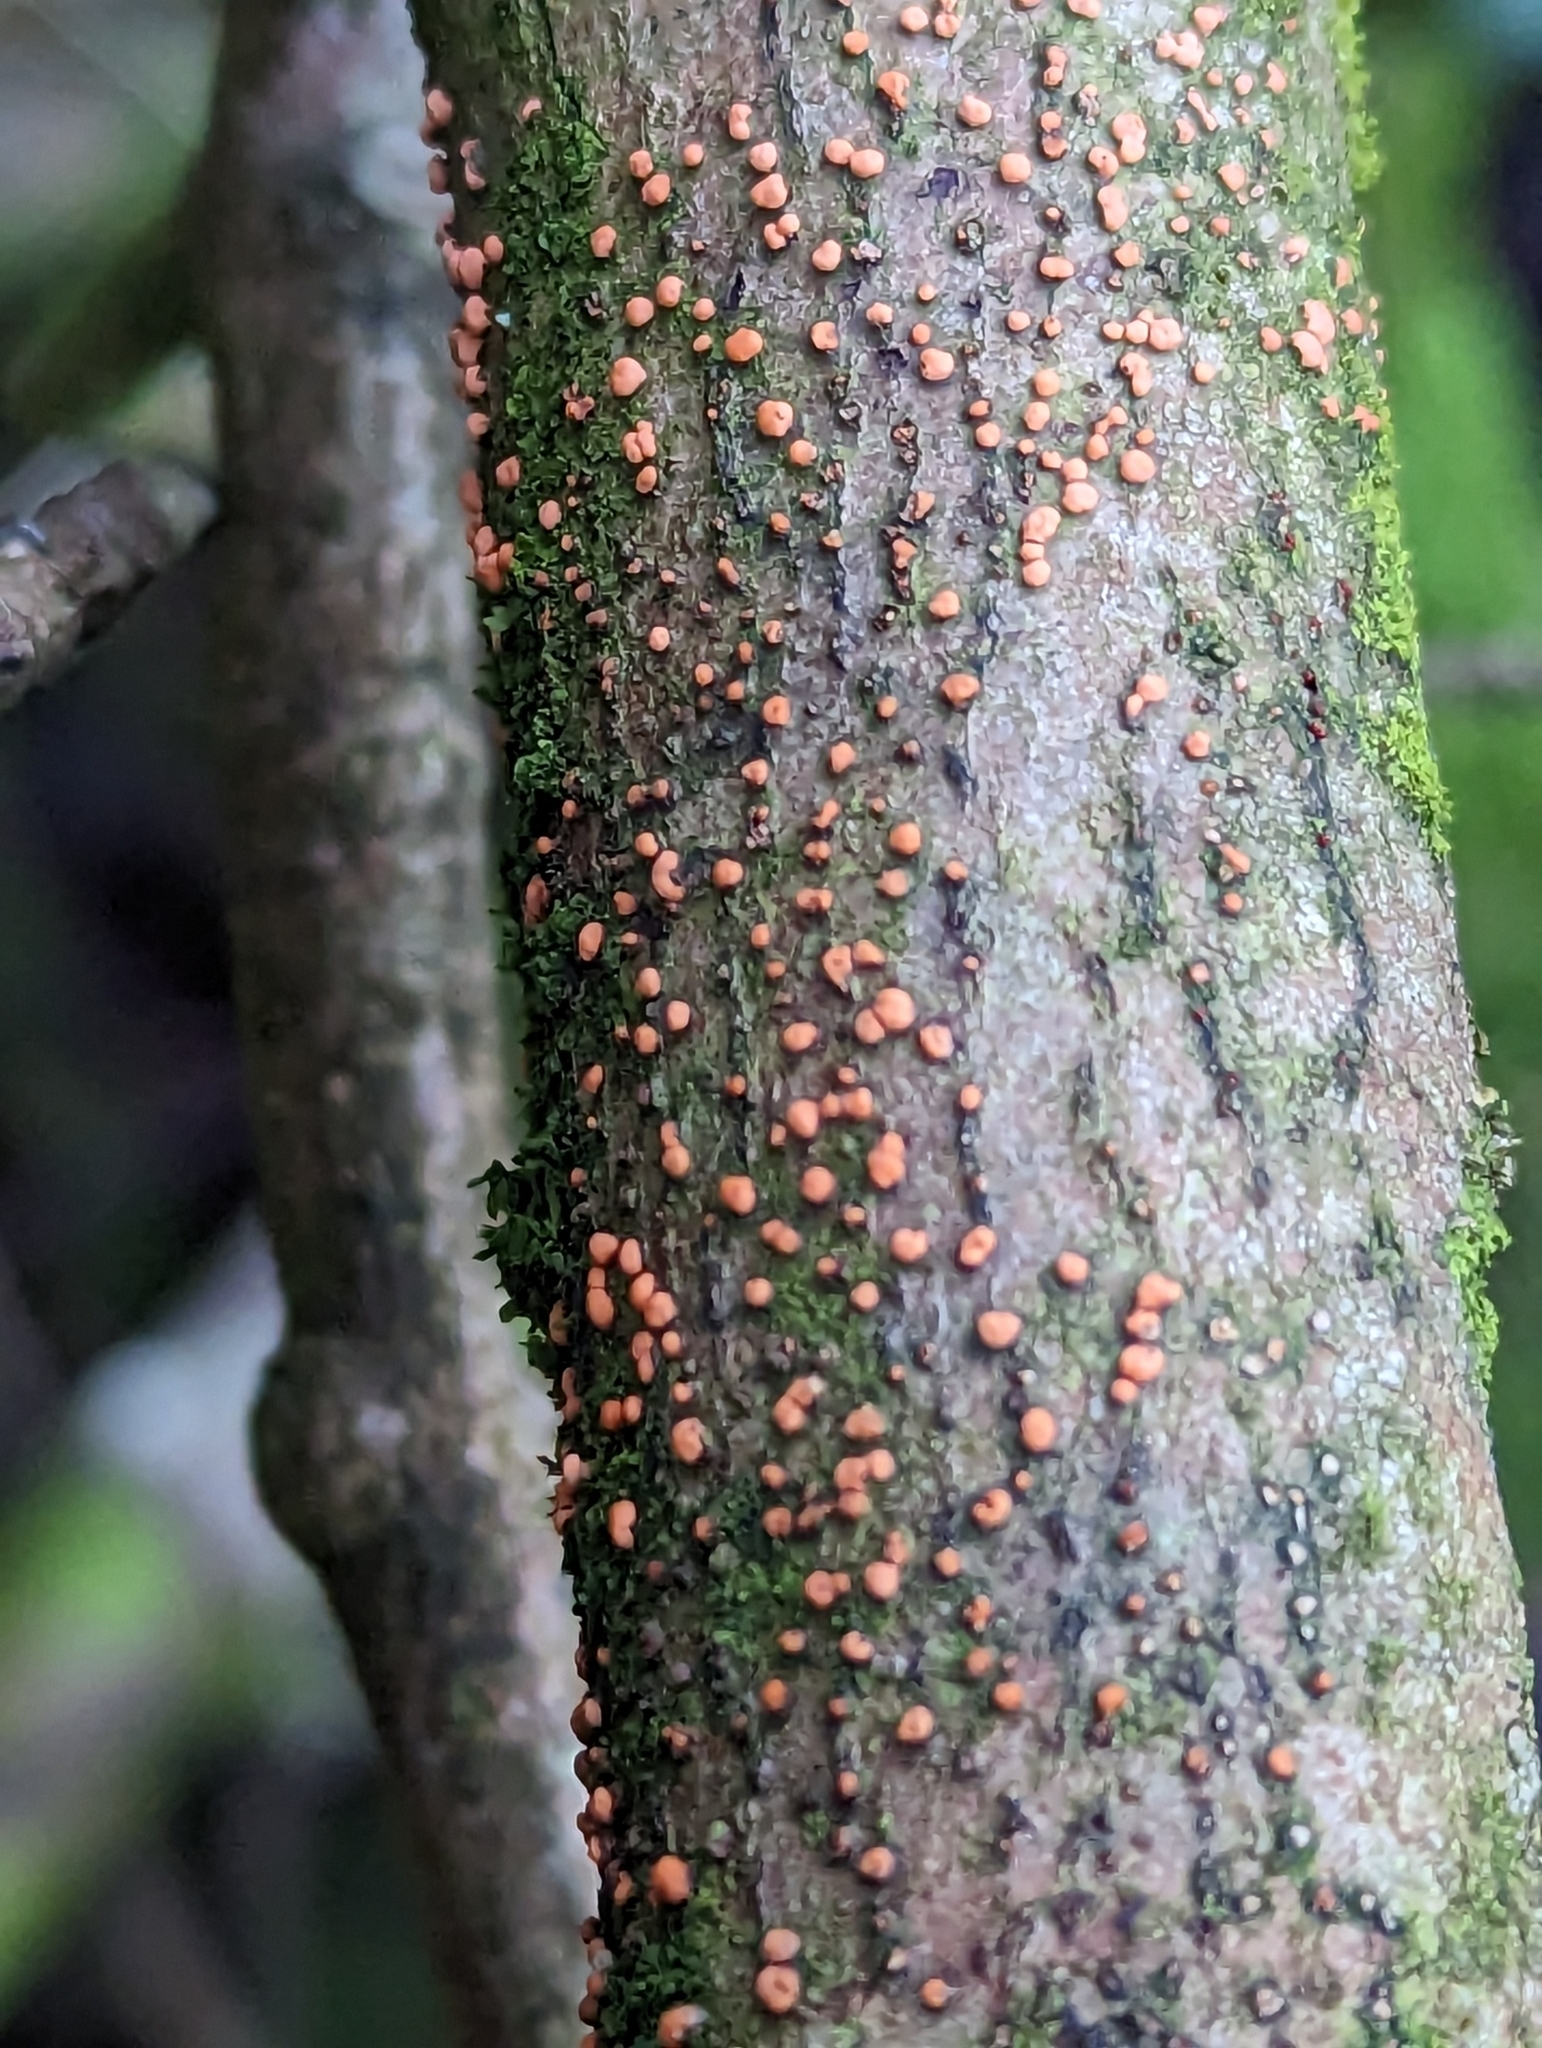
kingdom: Fungi
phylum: Ascomycota
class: Sordariomycetes
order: Hypocreales
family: Nectriaceae
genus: Nectria
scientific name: Nectria cinnabarina
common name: Coral spot
